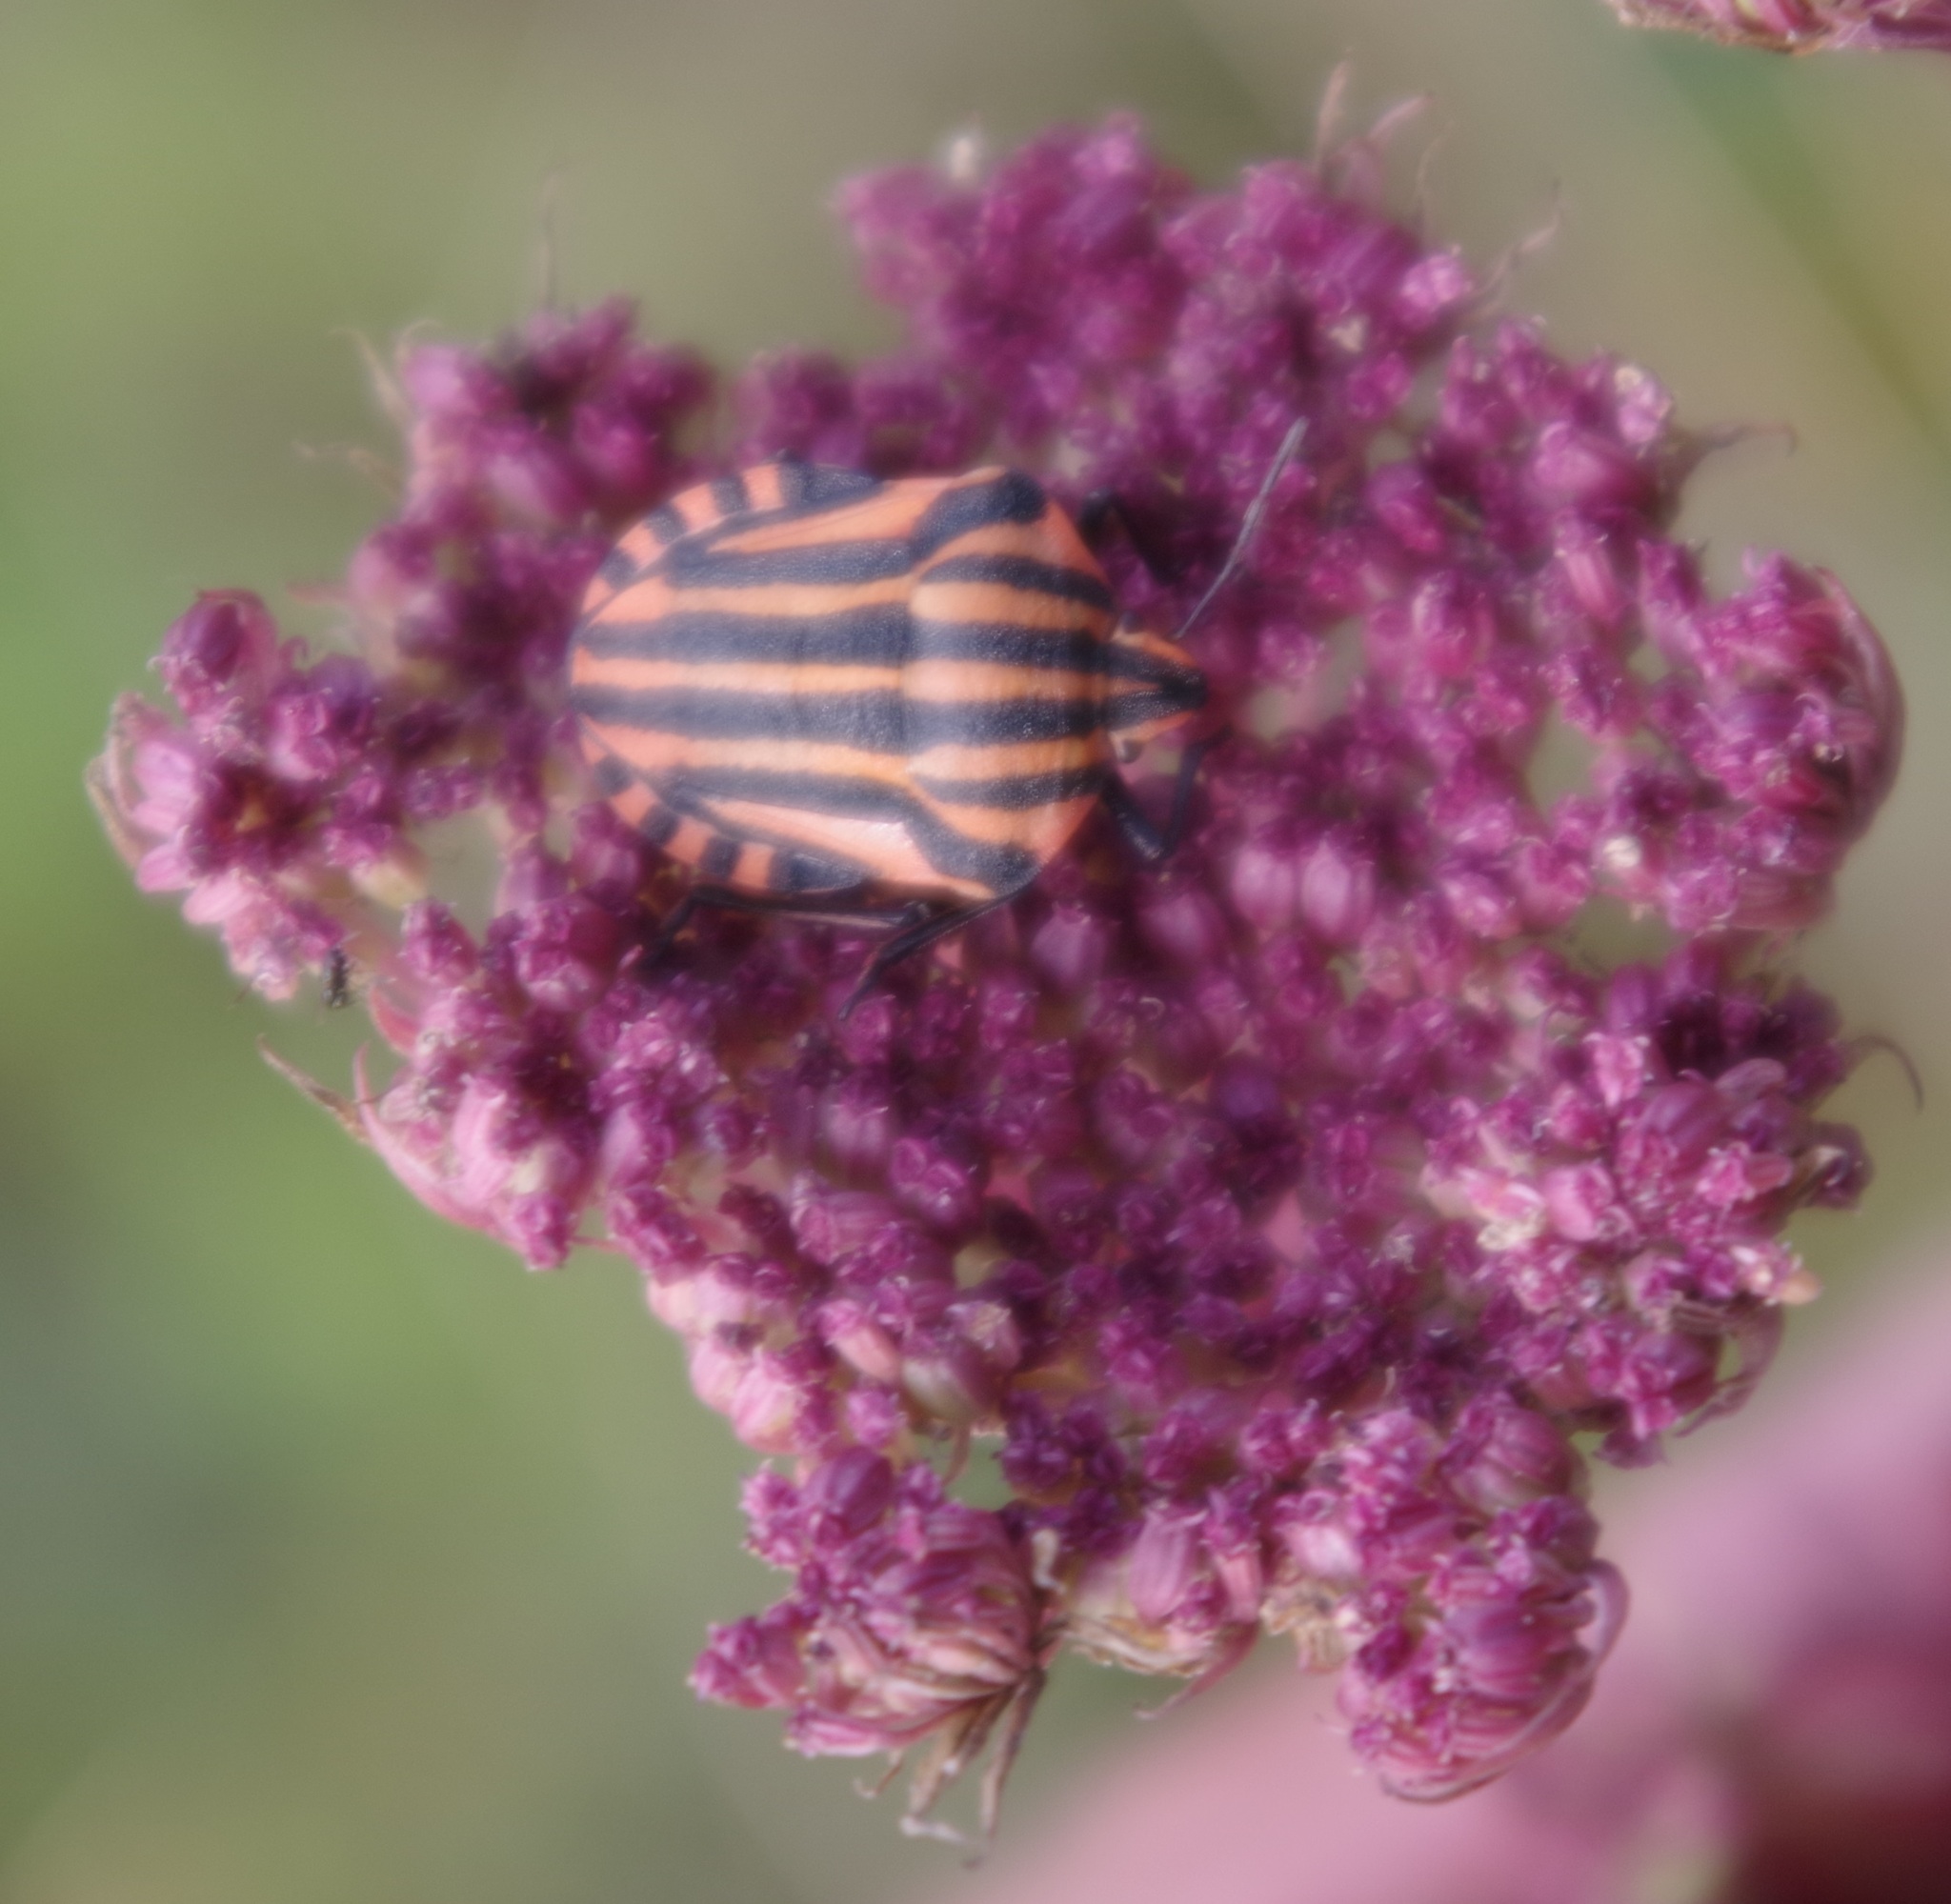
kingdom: Animalia
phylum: Arthropoda
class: Insecta
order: Hemiptera
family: Pentatomidae
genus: Graphosoma
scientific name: Graphosoma italicum
